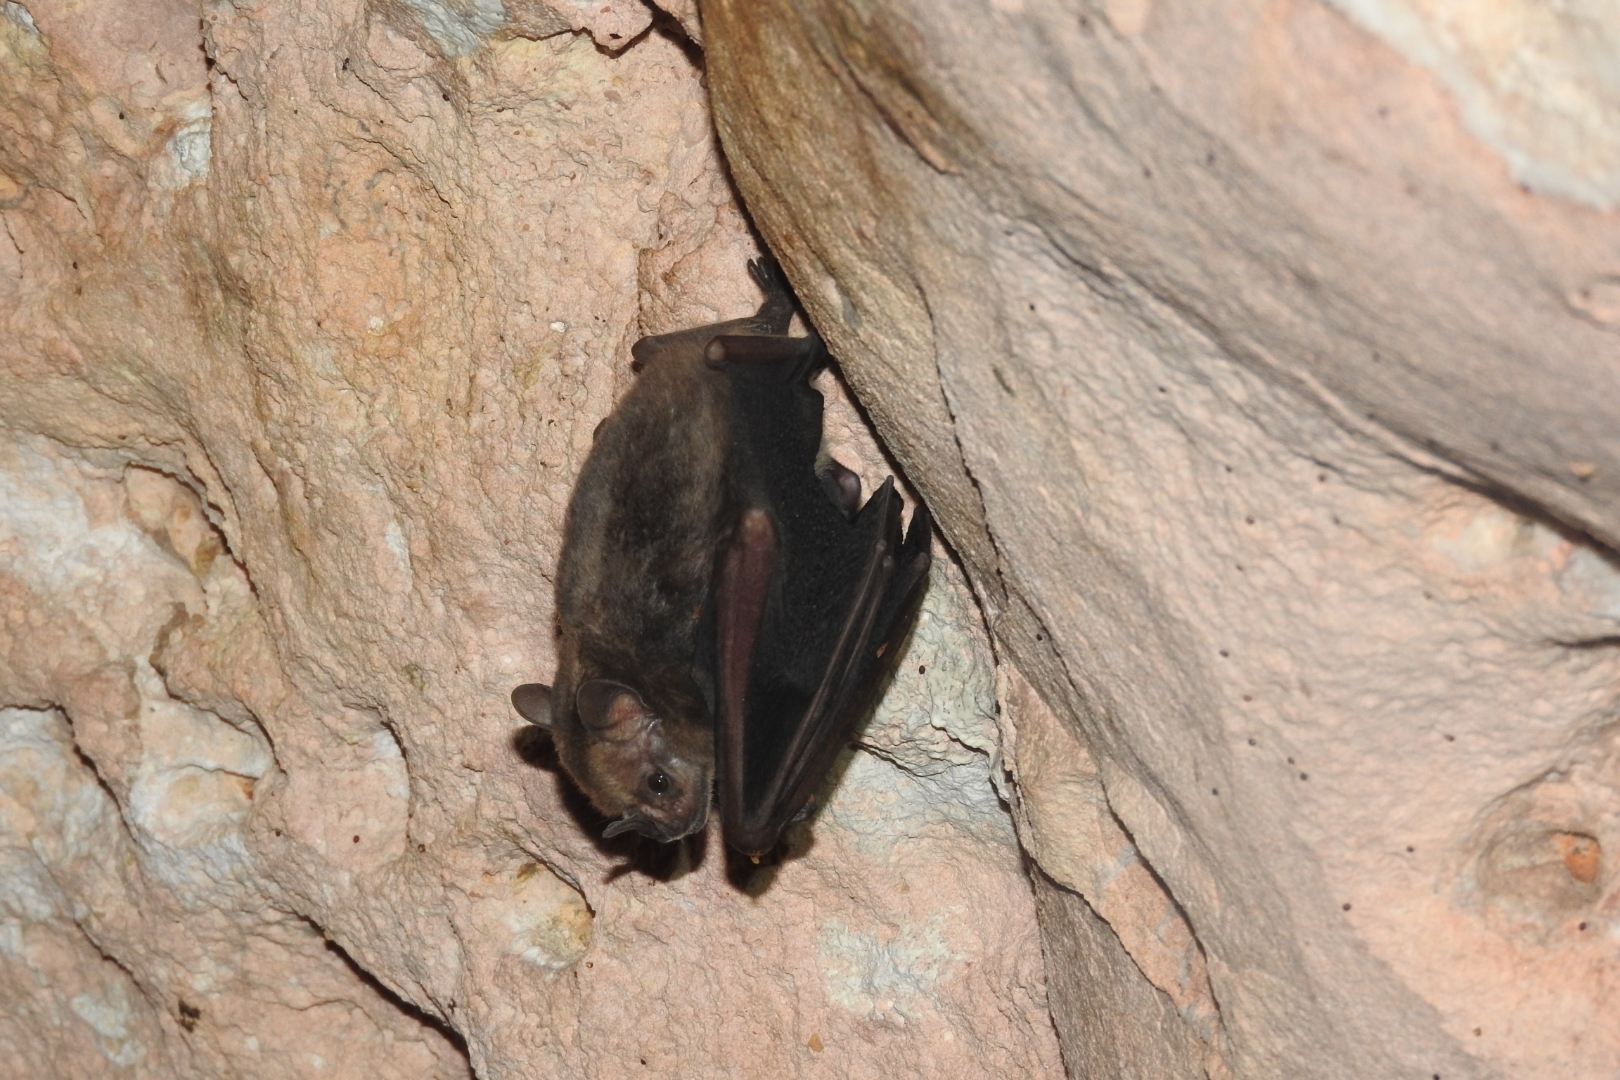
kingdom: Animalia
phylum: Chordata
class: Mammalia
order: Chiroptera
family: Phyllostomidae
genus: Artibeus
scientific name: Artibeus jamaicensis
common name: Jamaican fruit-eating bat
